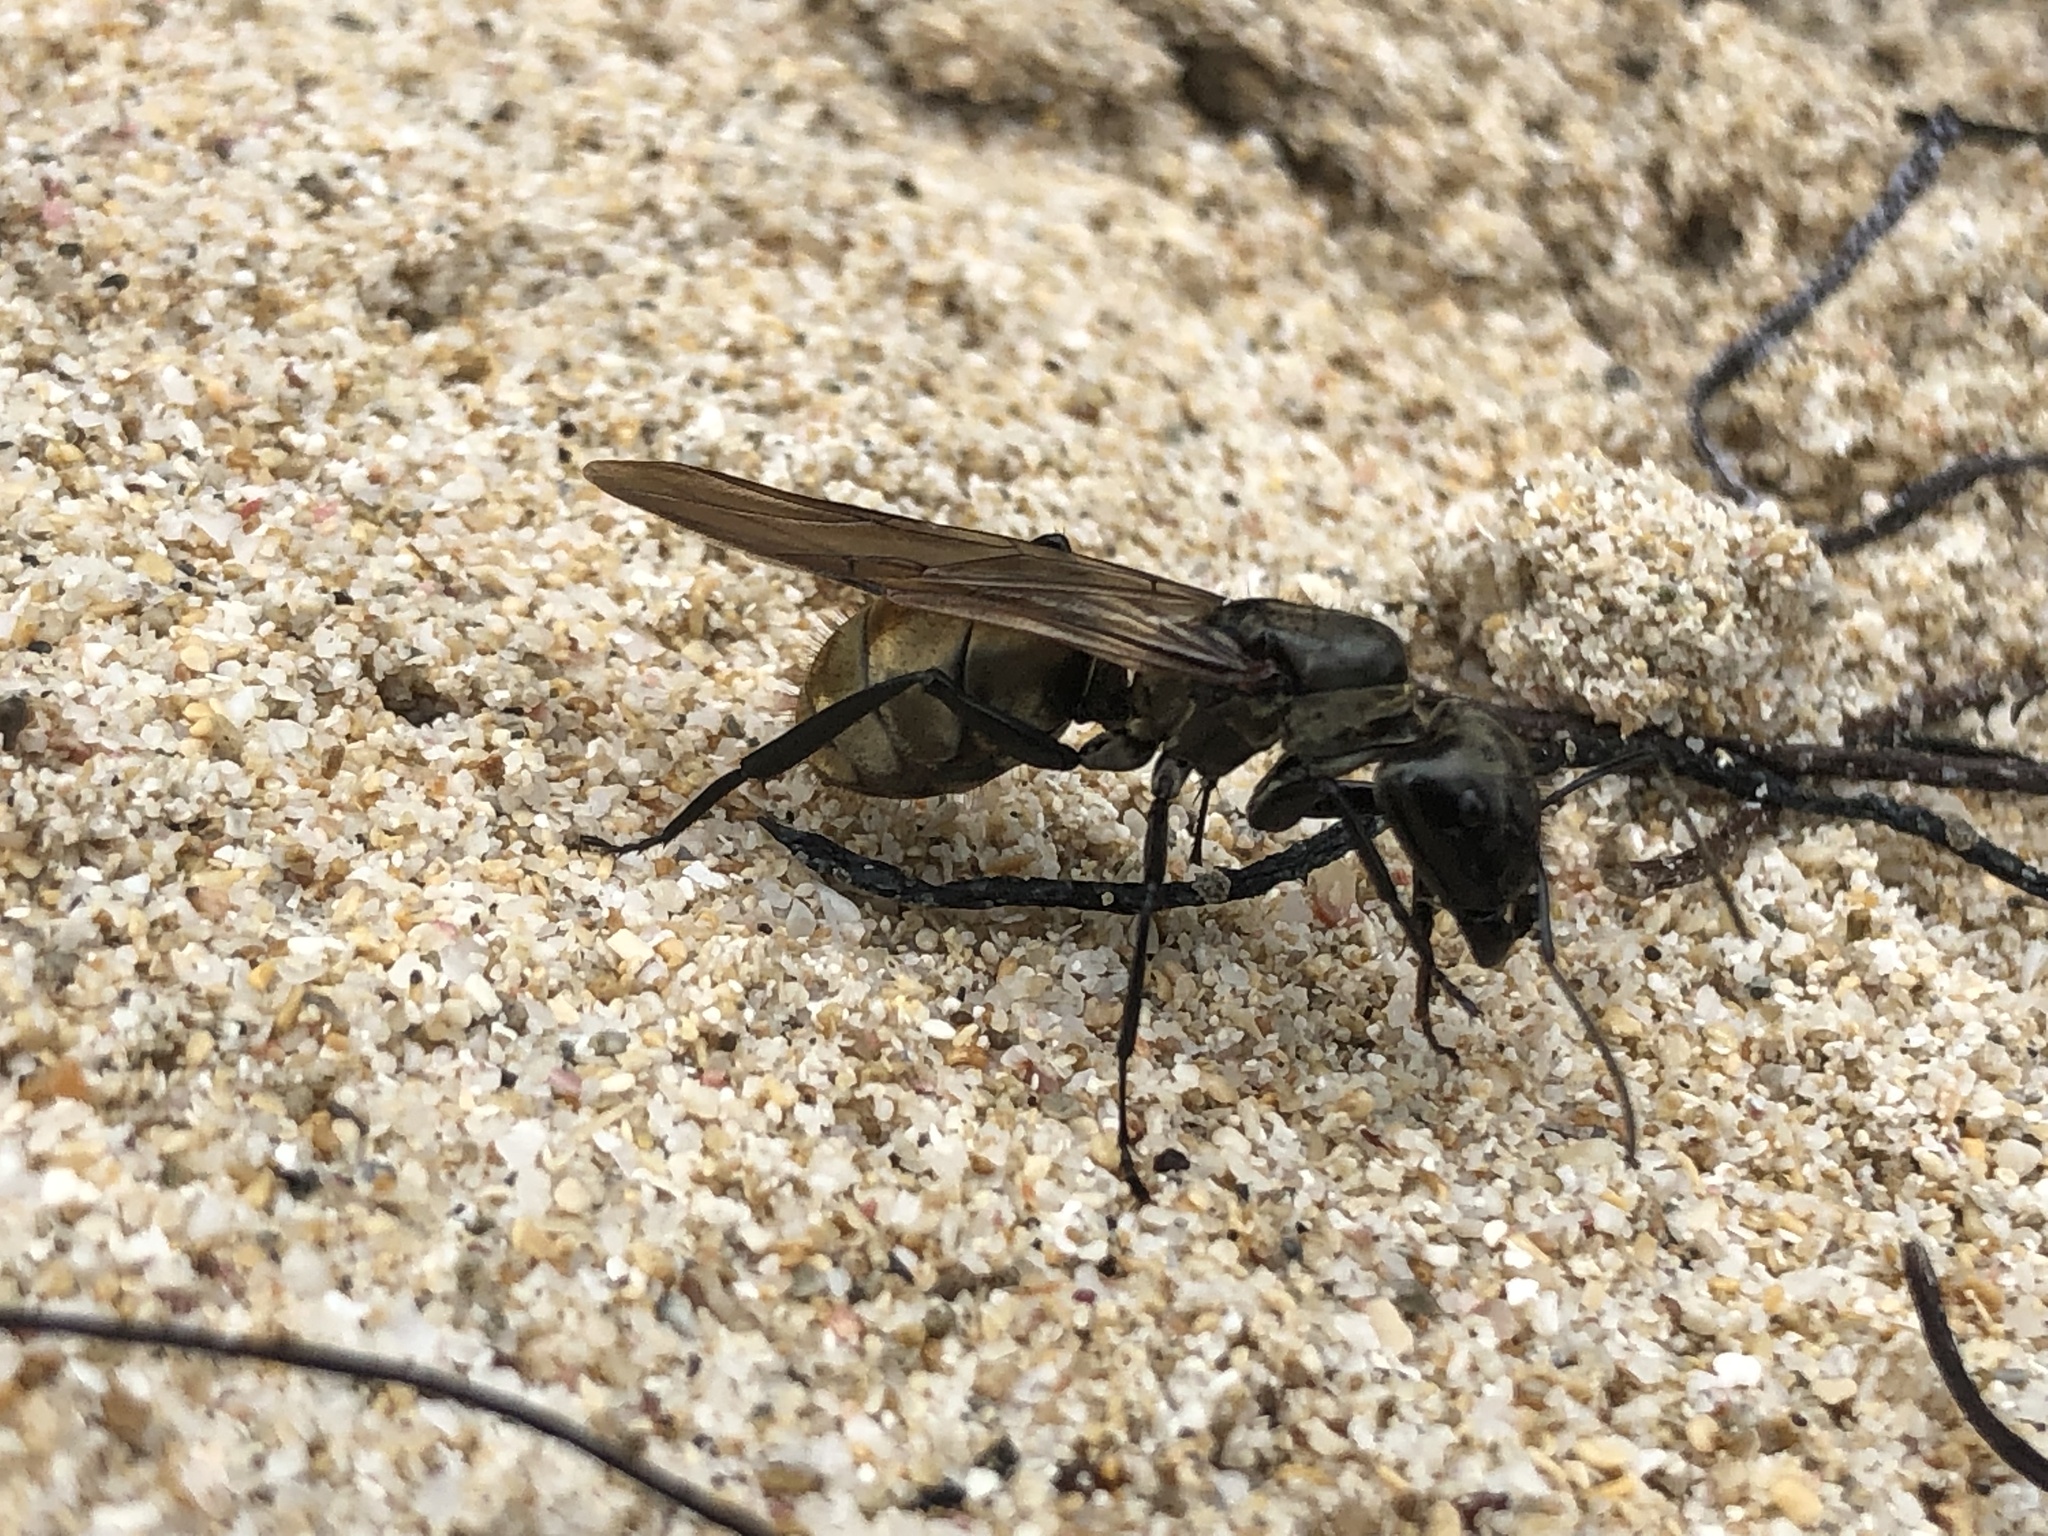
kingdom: Animalia
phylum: Arthropoda
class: Insecta
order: Hymenoptera
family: Formicidae
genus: Camponotus
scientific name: Camponotus sericeiventris
